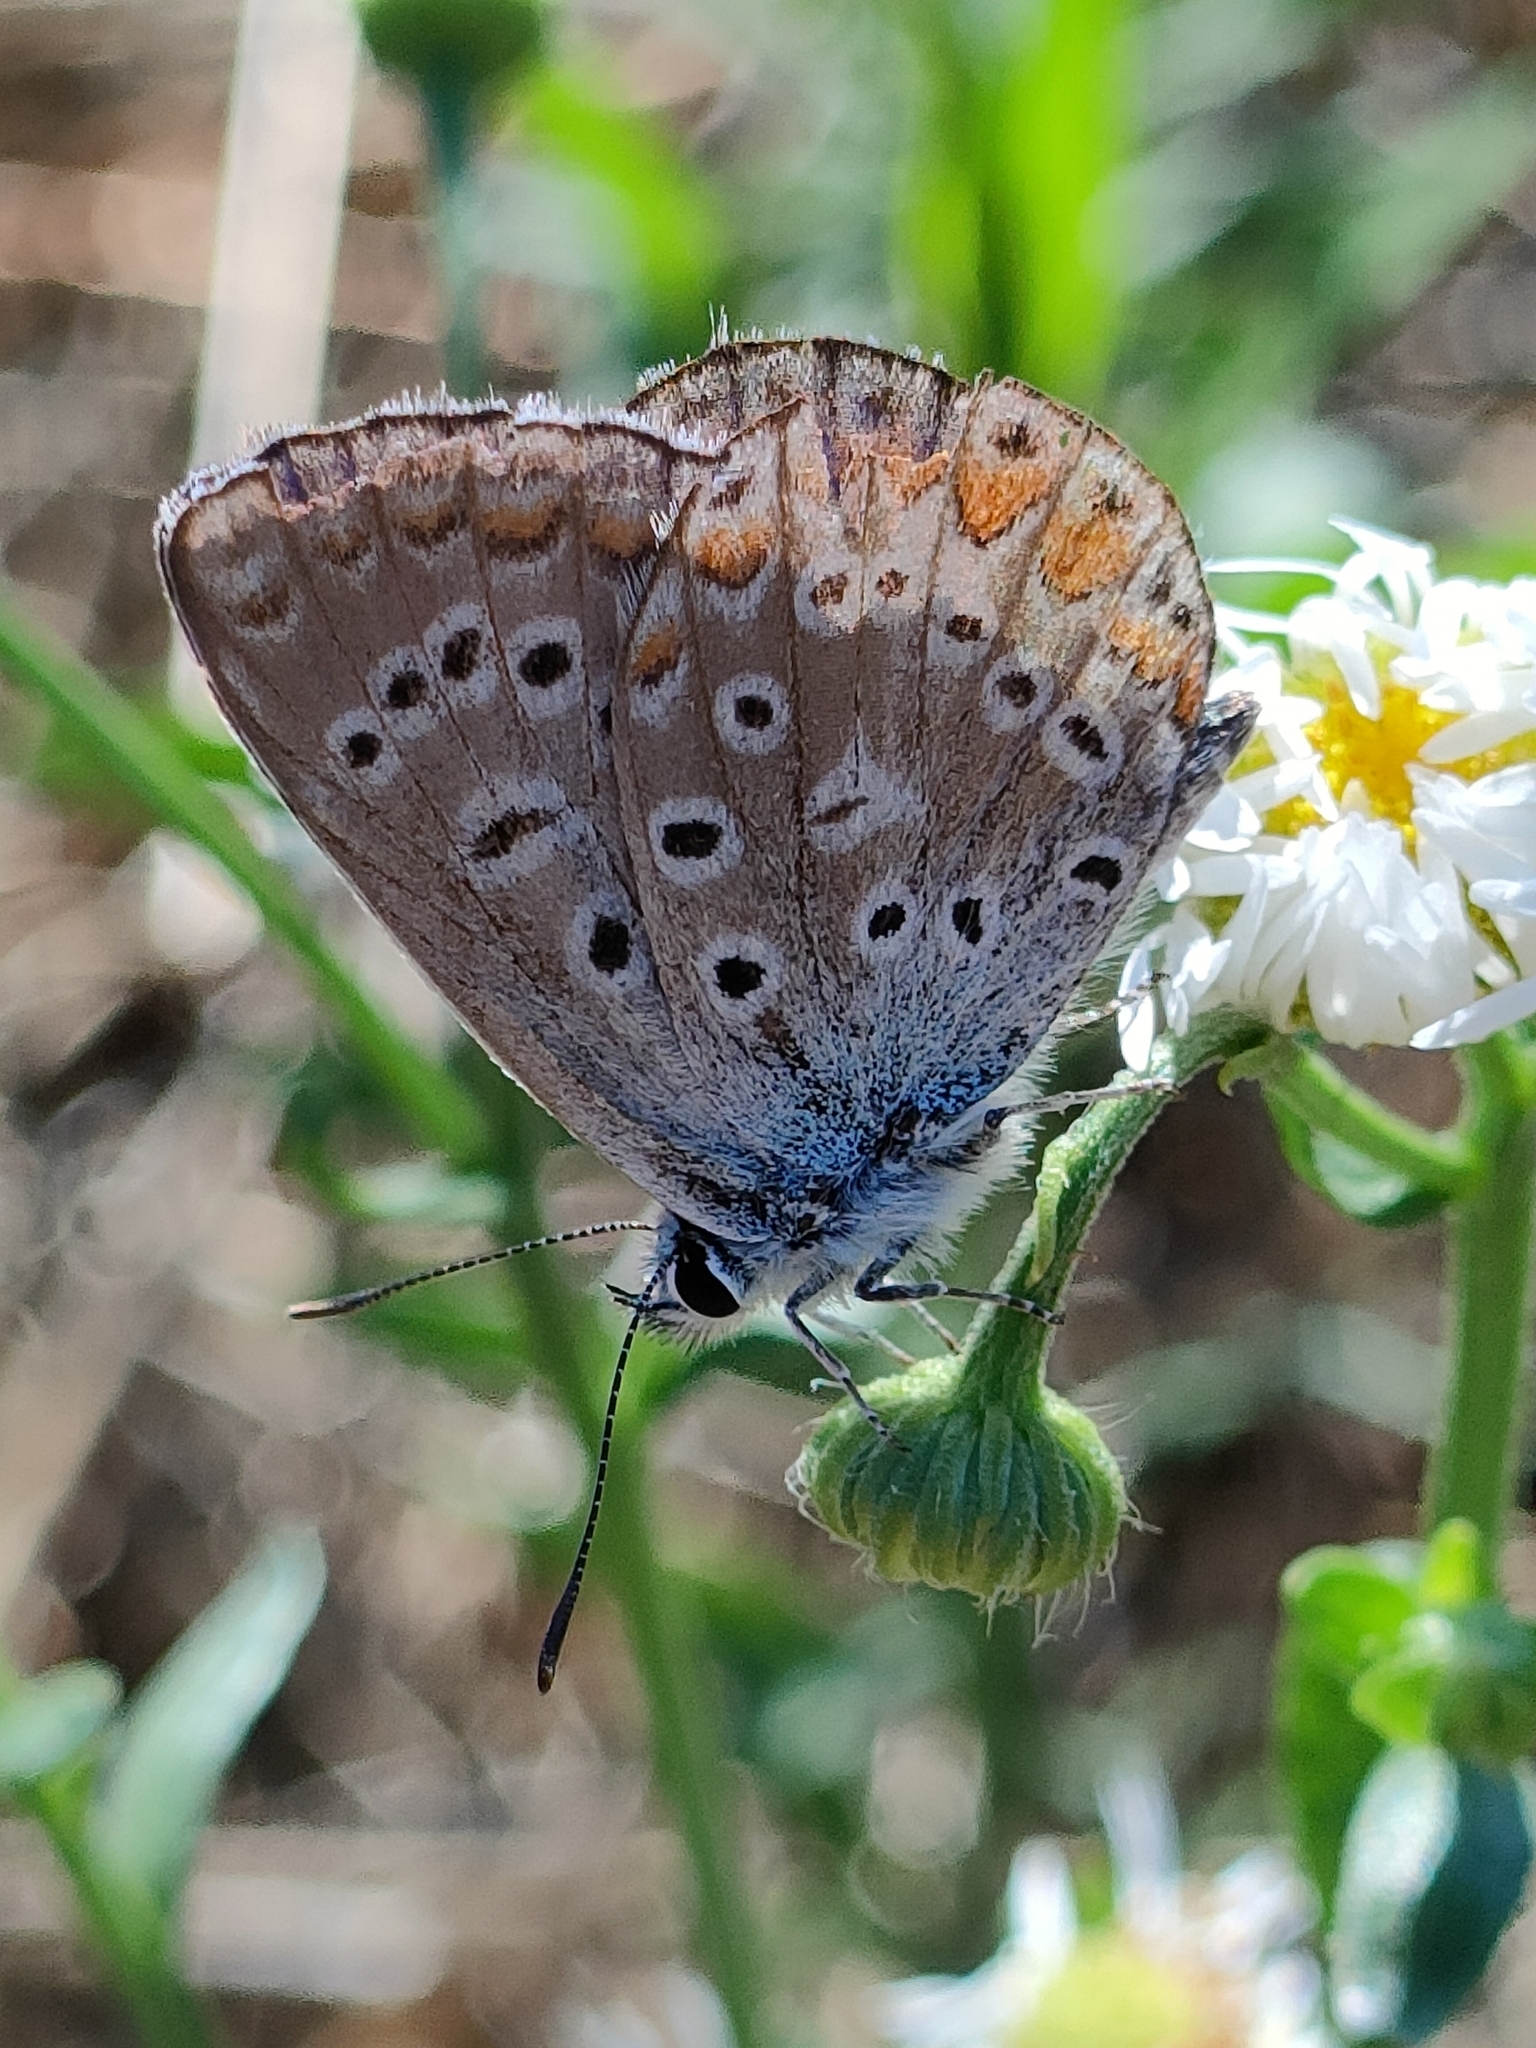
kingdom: Animalia
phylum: Arthropoda
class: Insecta
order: Lepidoptera
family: Lycaenidae
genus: Polyommatus
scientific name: Polyommatus icarus
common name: Common blue
